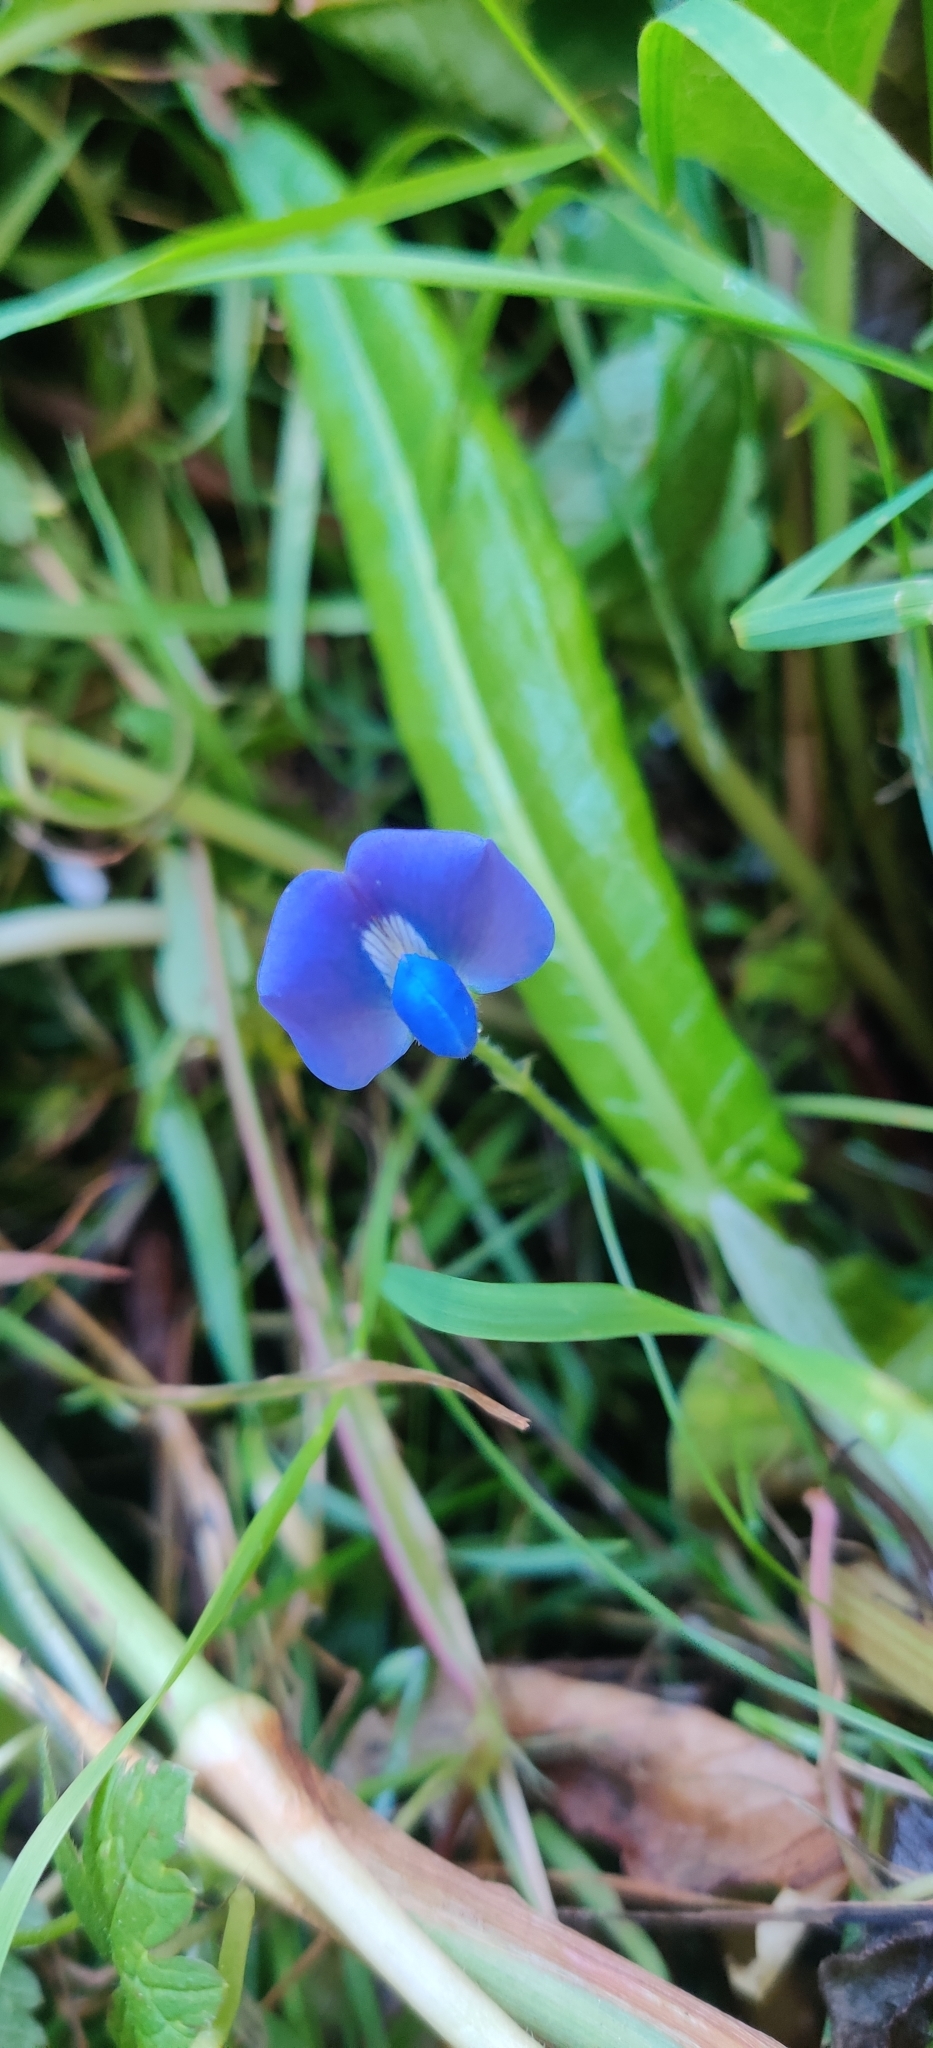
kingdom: Plantae
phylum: Tracheophyta
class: Magnoliopsida
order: Fabales
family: Fabaceae
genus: Parochetus
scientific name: Parochetus communis
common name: Blue oxalis
